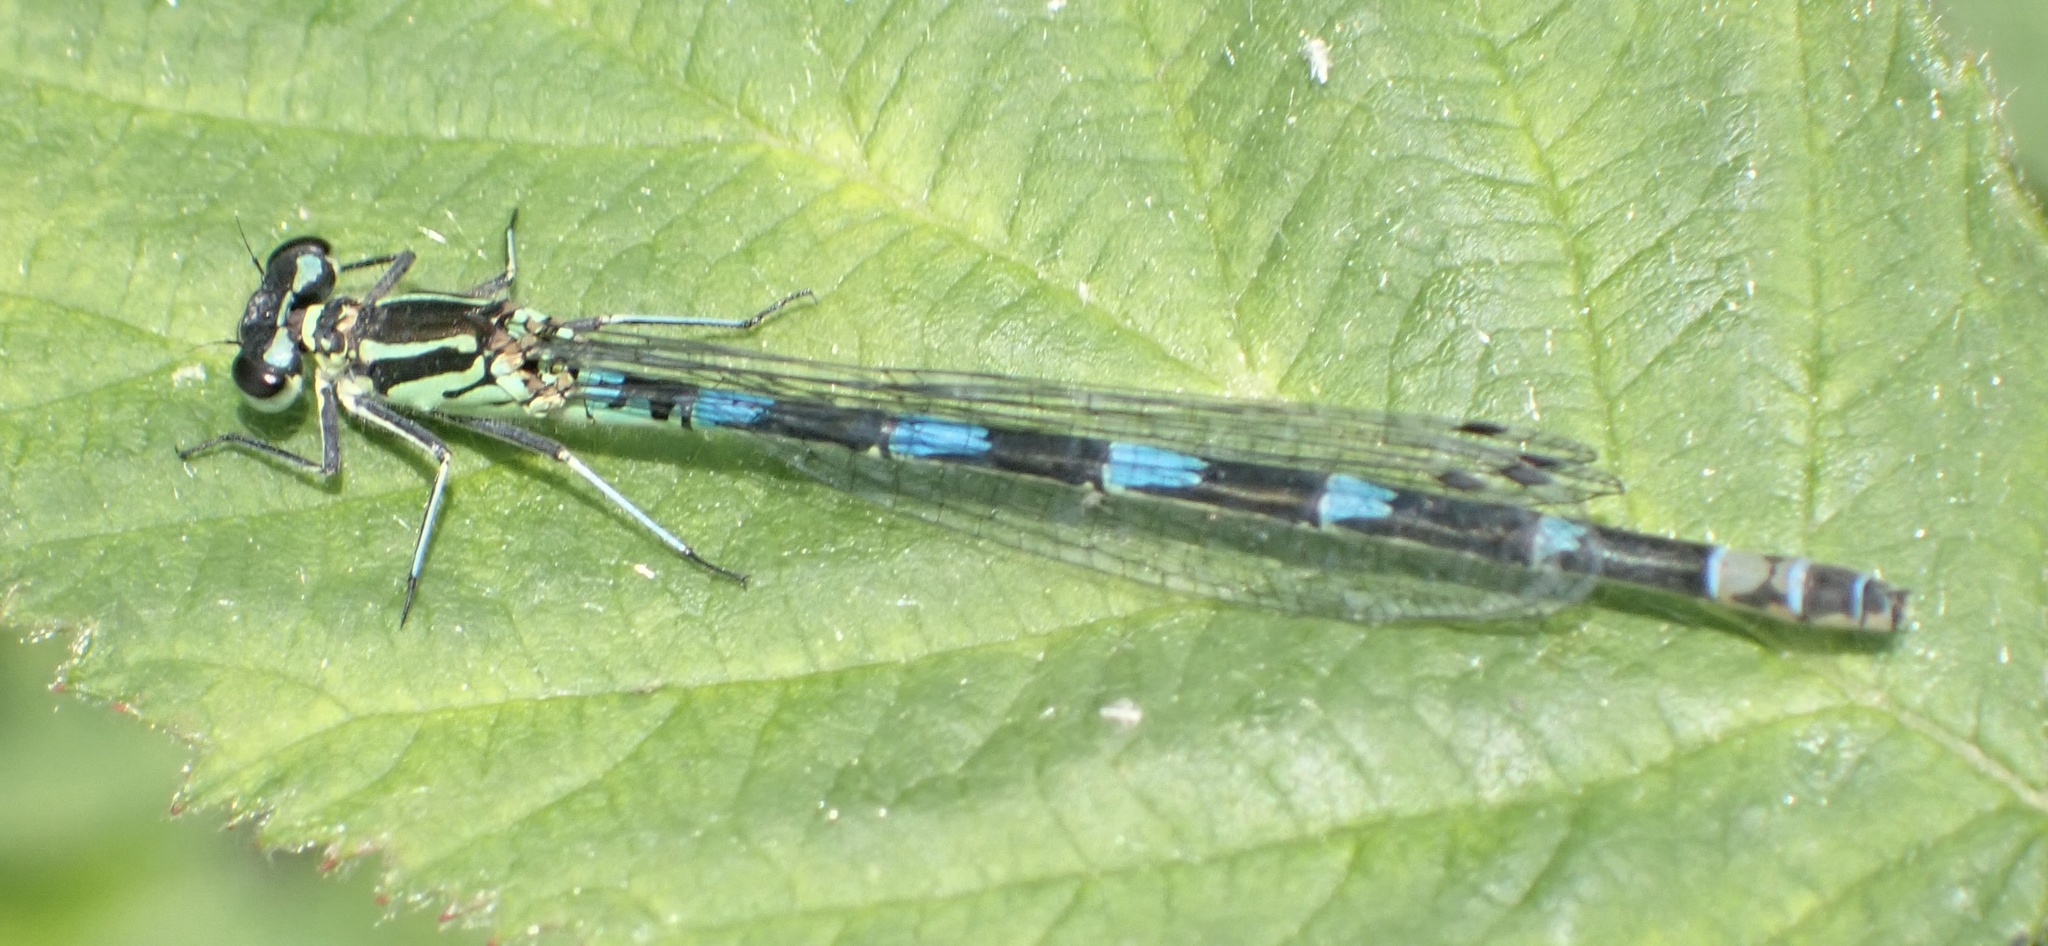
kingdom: Animalia
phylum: Arthropoda
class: Insecta
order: Odonata
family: Coenagrionidae
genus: Coenagrion
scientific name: Coenagrion pulchellum
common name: Variable bluet
